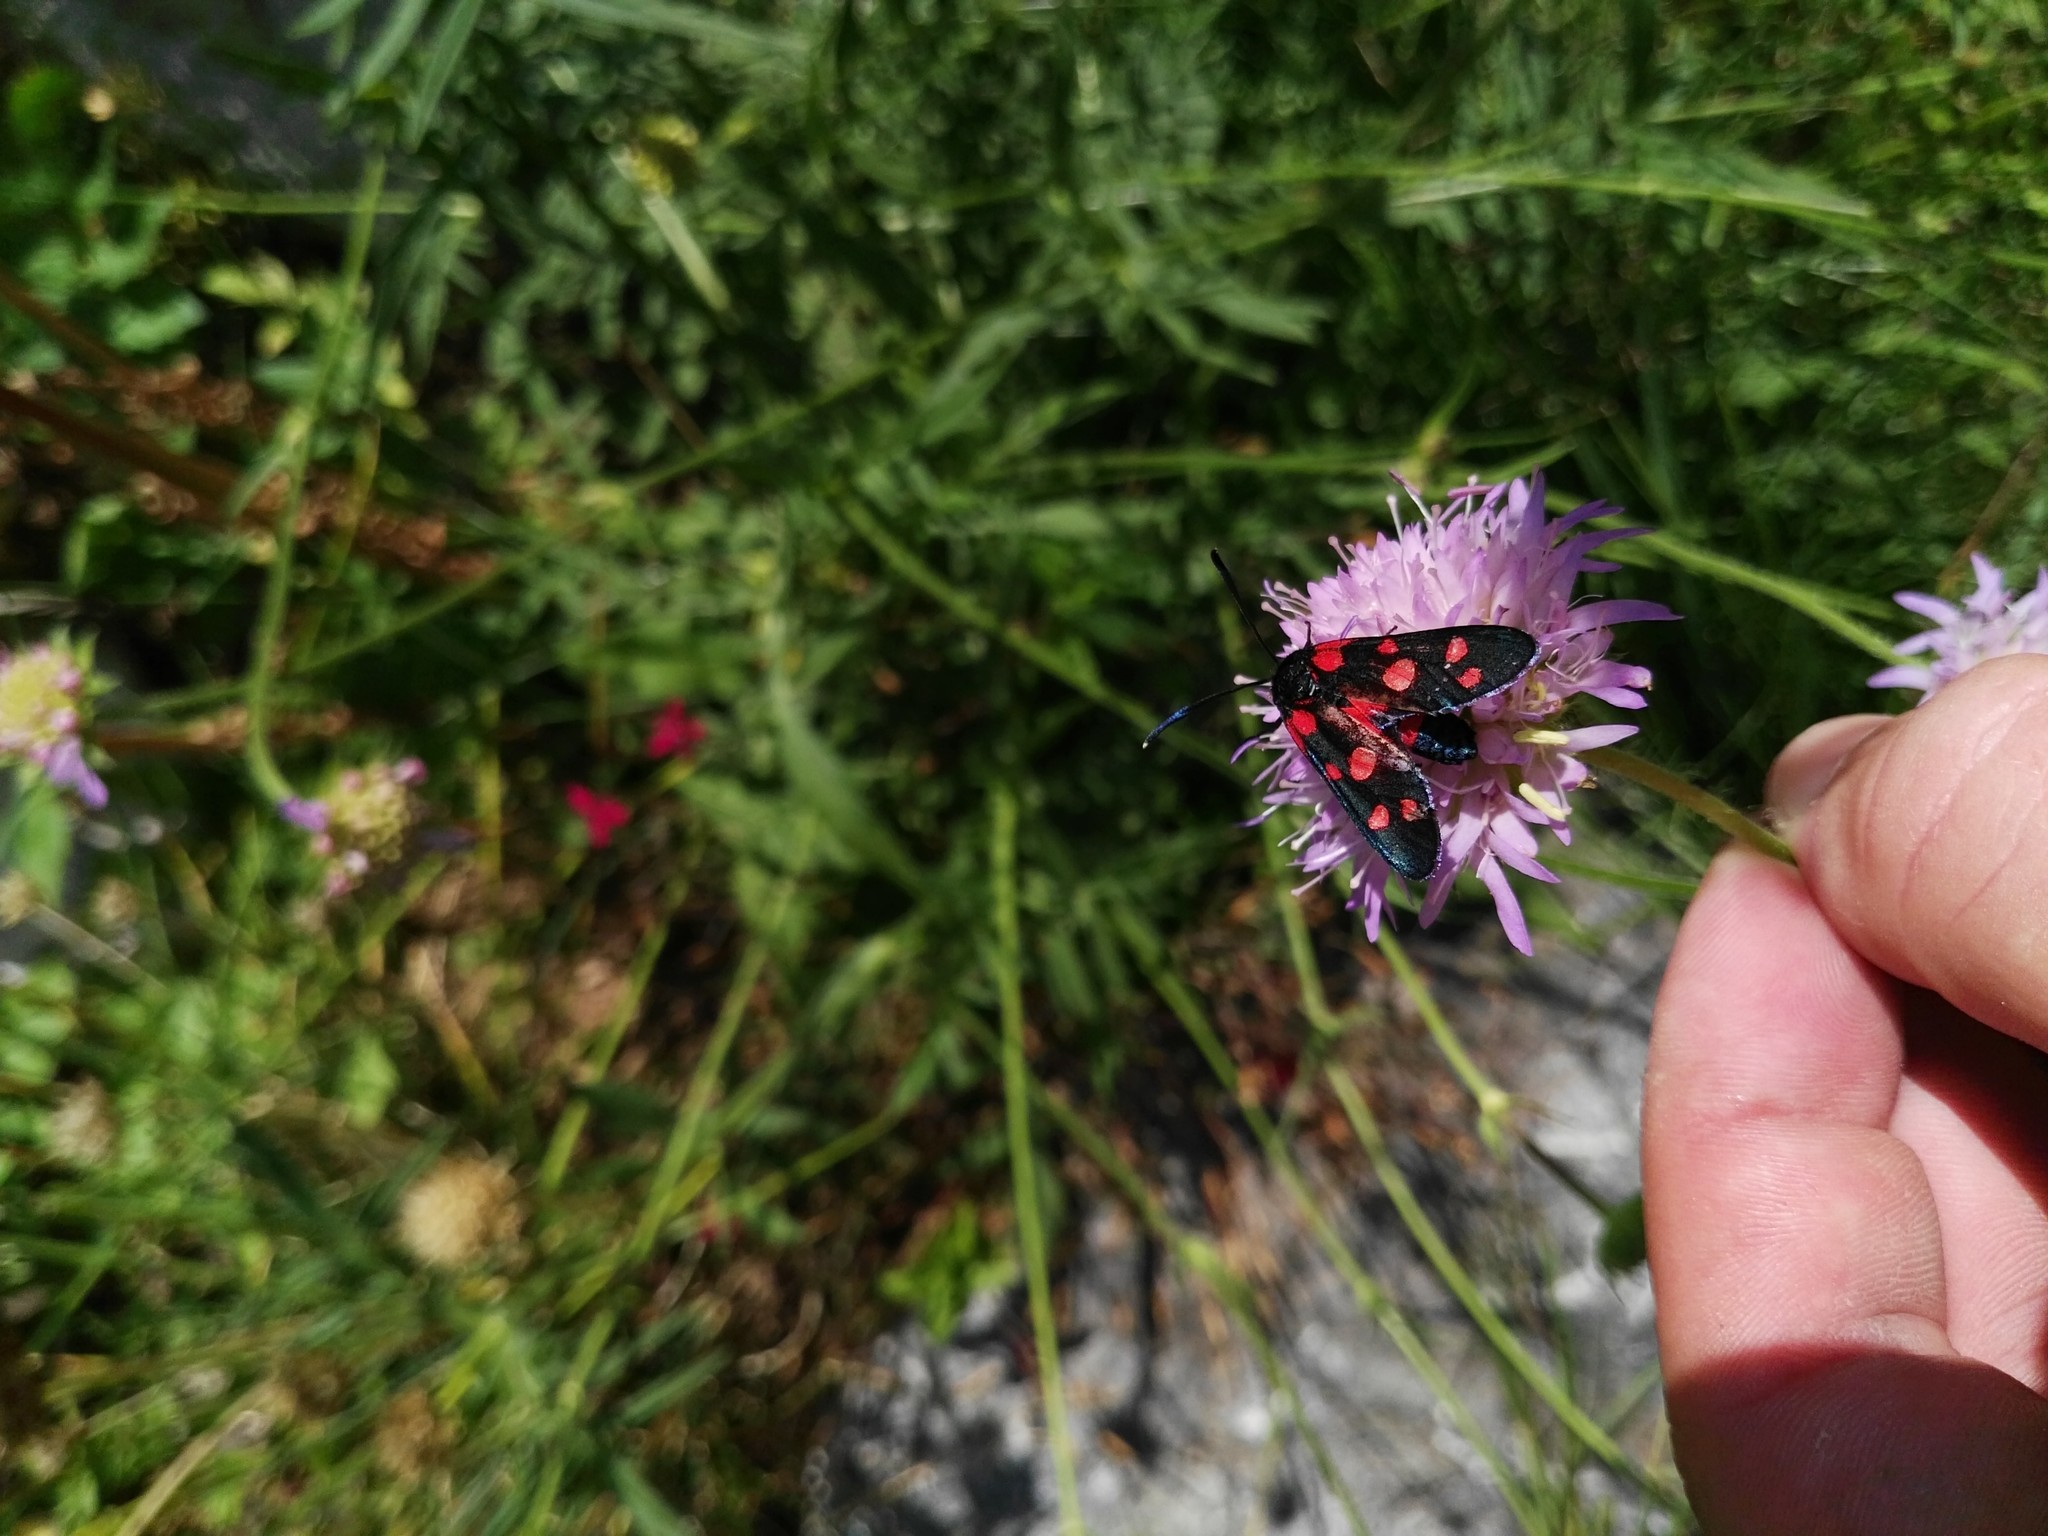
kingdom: Animalia
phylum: Arthropoda
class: Insecta
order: Lepidoptera
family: Zygaenidae
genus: Zygaena
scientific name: Zygaena ephialtes
